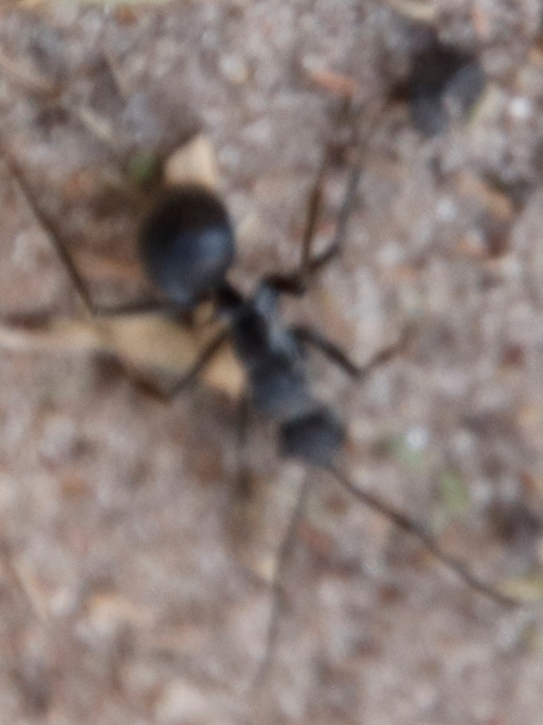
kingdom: Animalia
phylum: Arthropoda
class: Insecta
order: Hymenoptera
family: Formicidae
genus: Polyrhachis
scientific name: Polyrhachis schistacea
